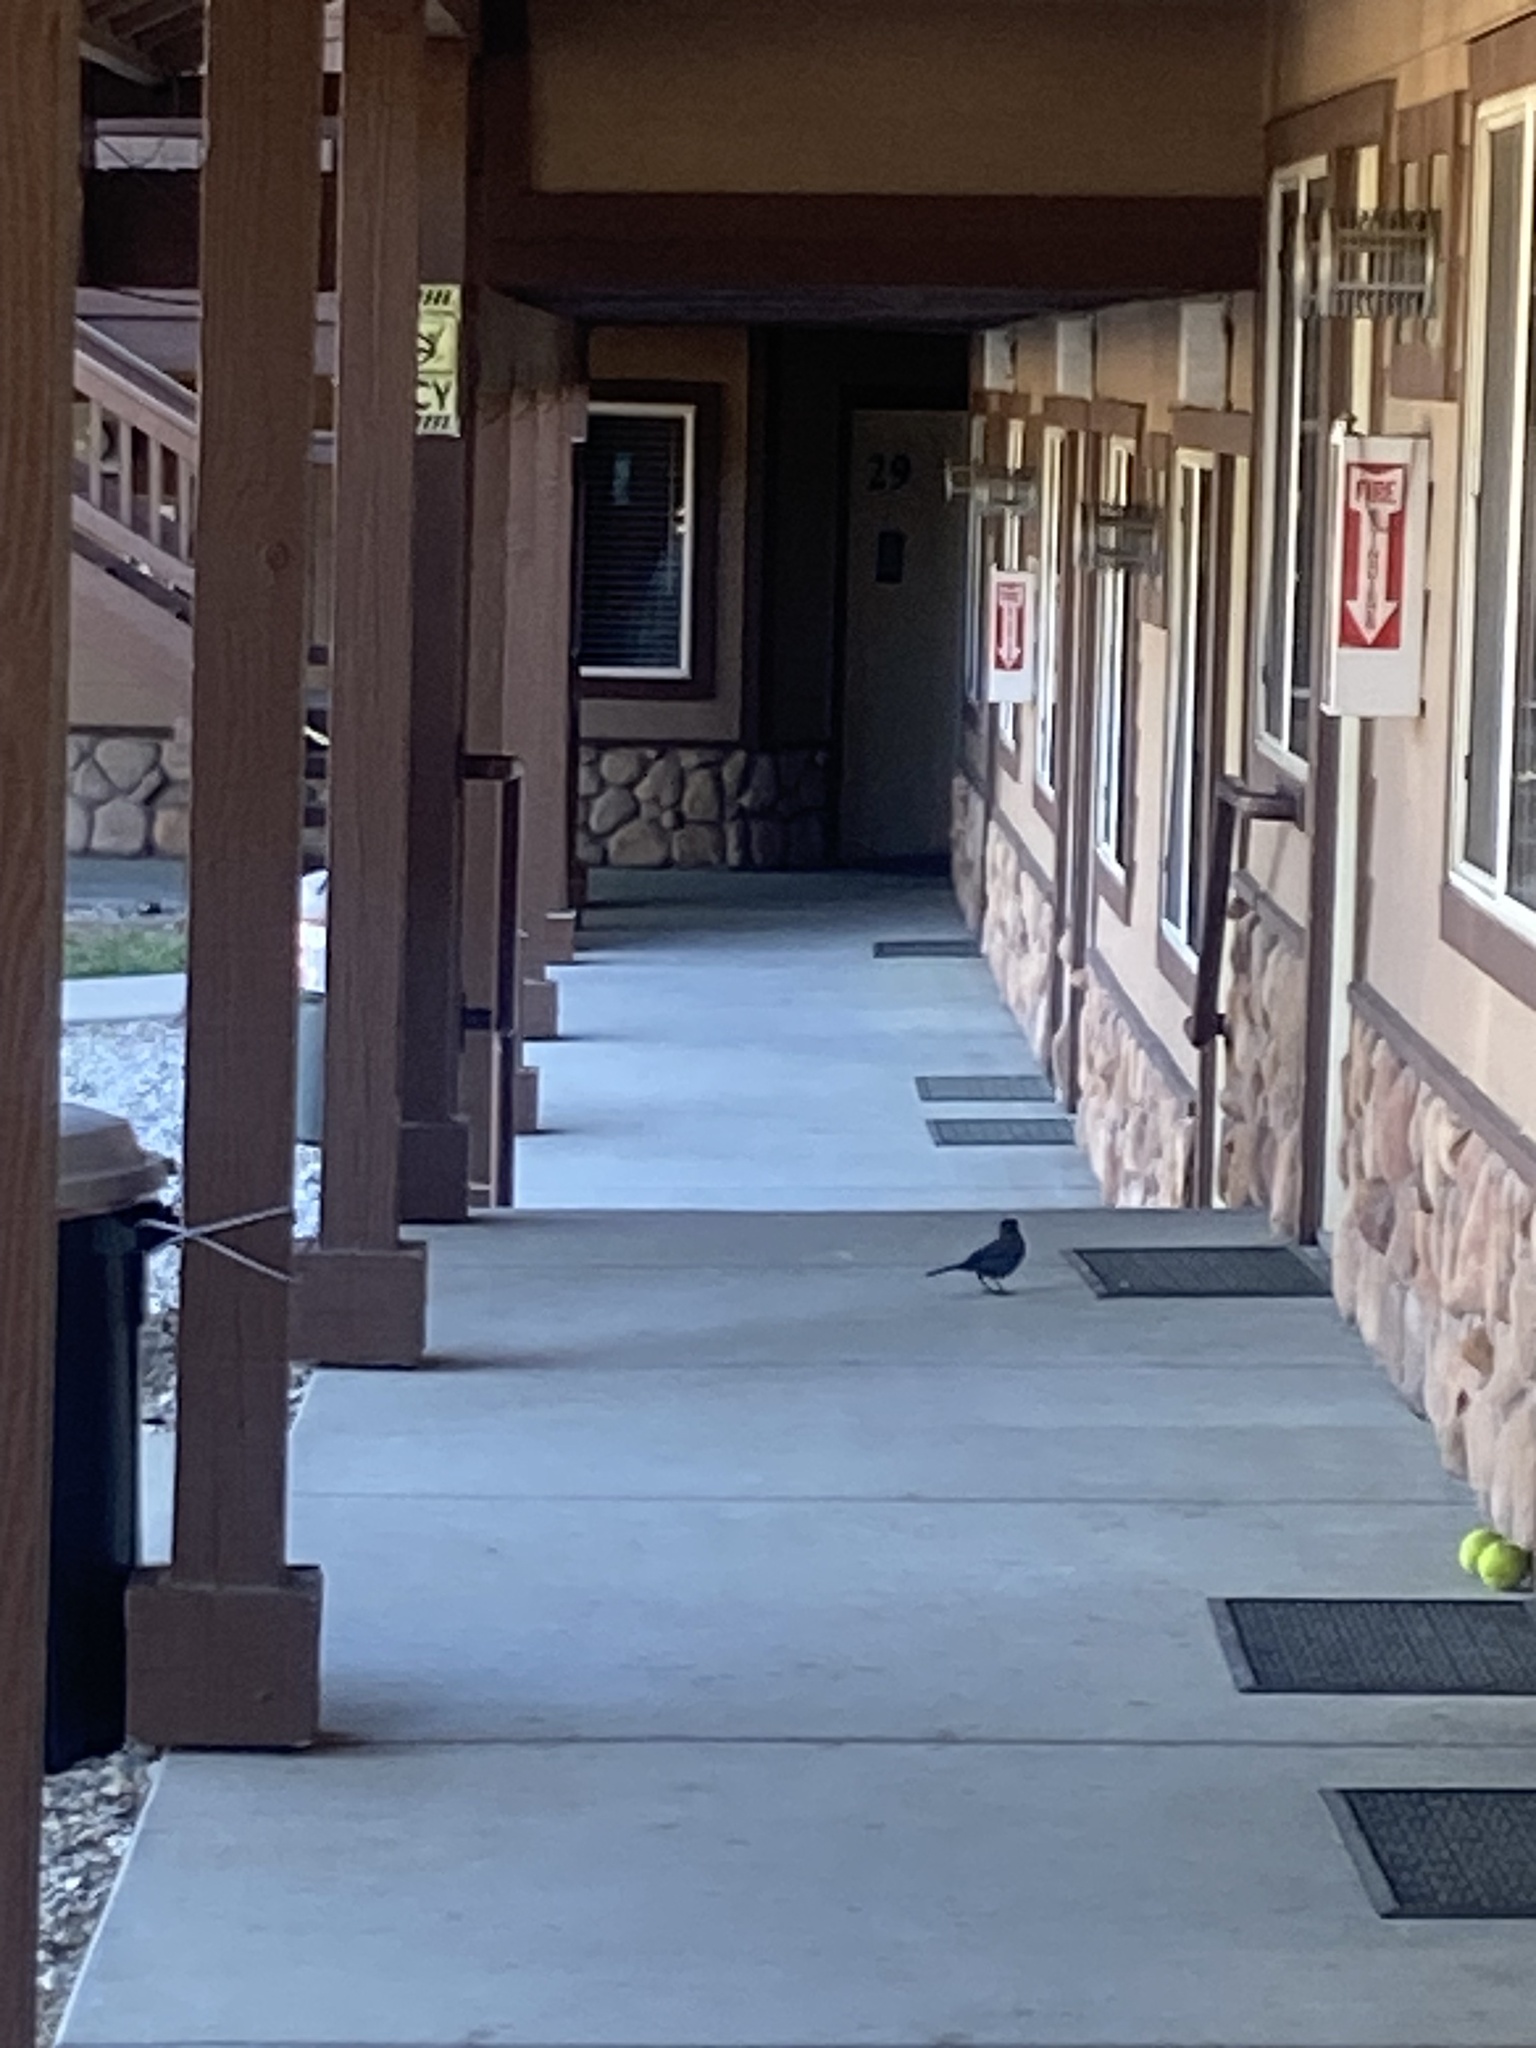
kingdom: Animalia
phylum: Chordata
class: Aves
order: Passeriformes
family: Corvidae
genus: Cyanocitta
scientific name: Cyanocitta stelleri
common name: Steller's jay
